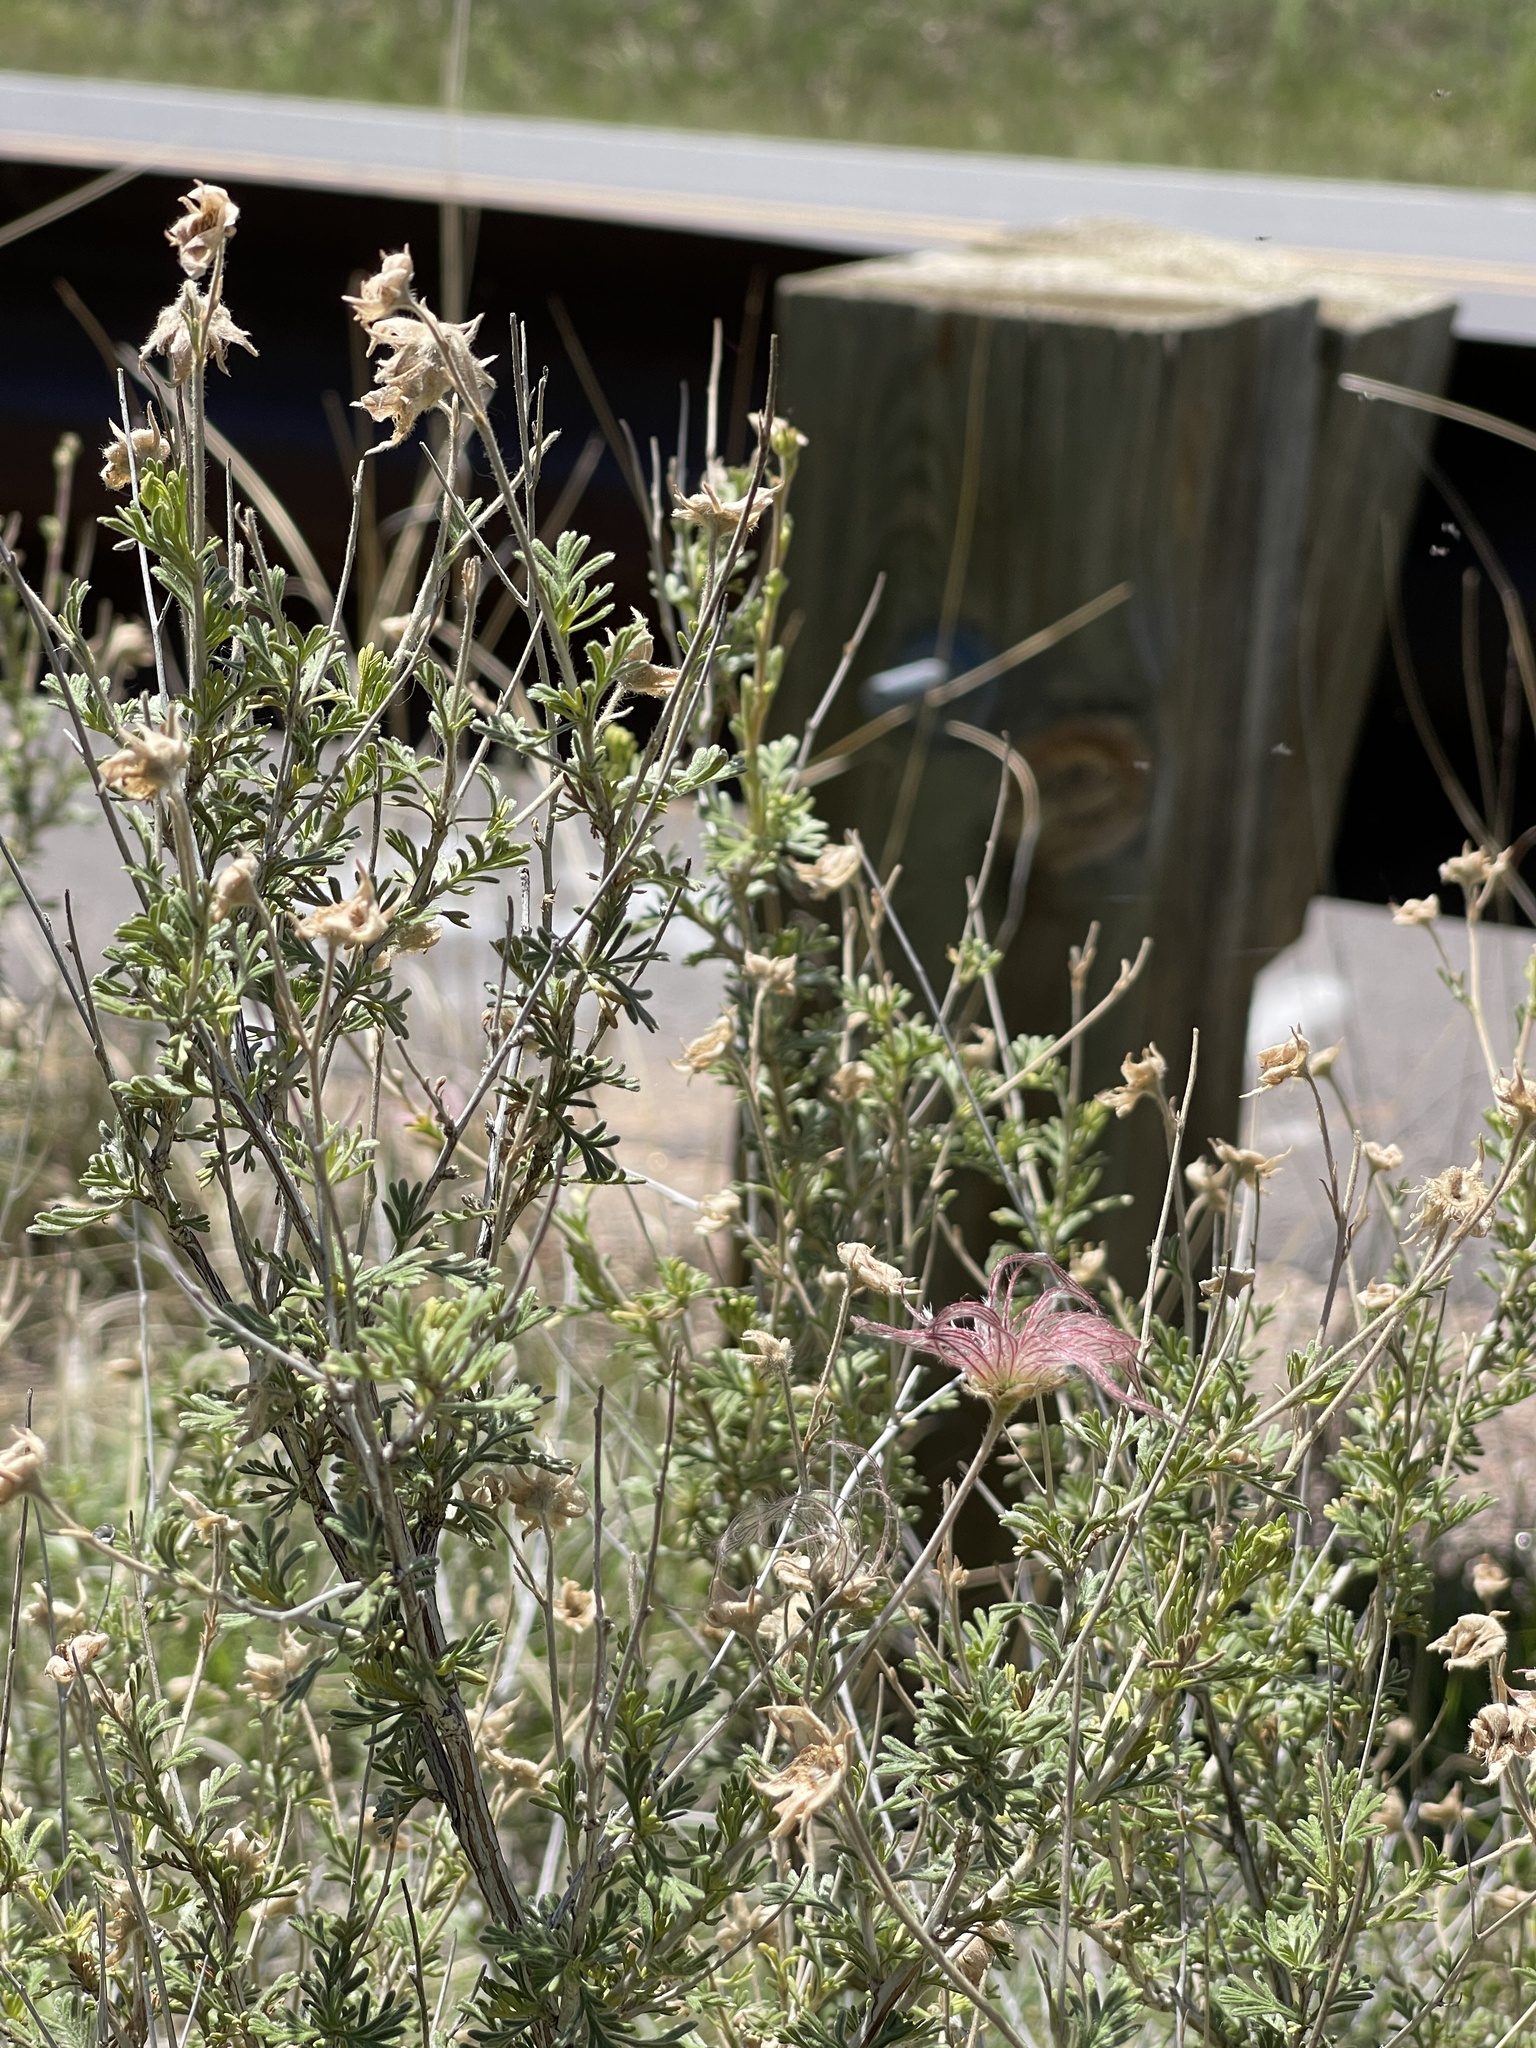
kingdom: Plantae
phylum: Tracheophyta
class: Magnoliopsida
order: Rosales
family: Rosaceae
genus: Fallugia
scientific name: Fallugia paradoxa
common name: Apache-plume
